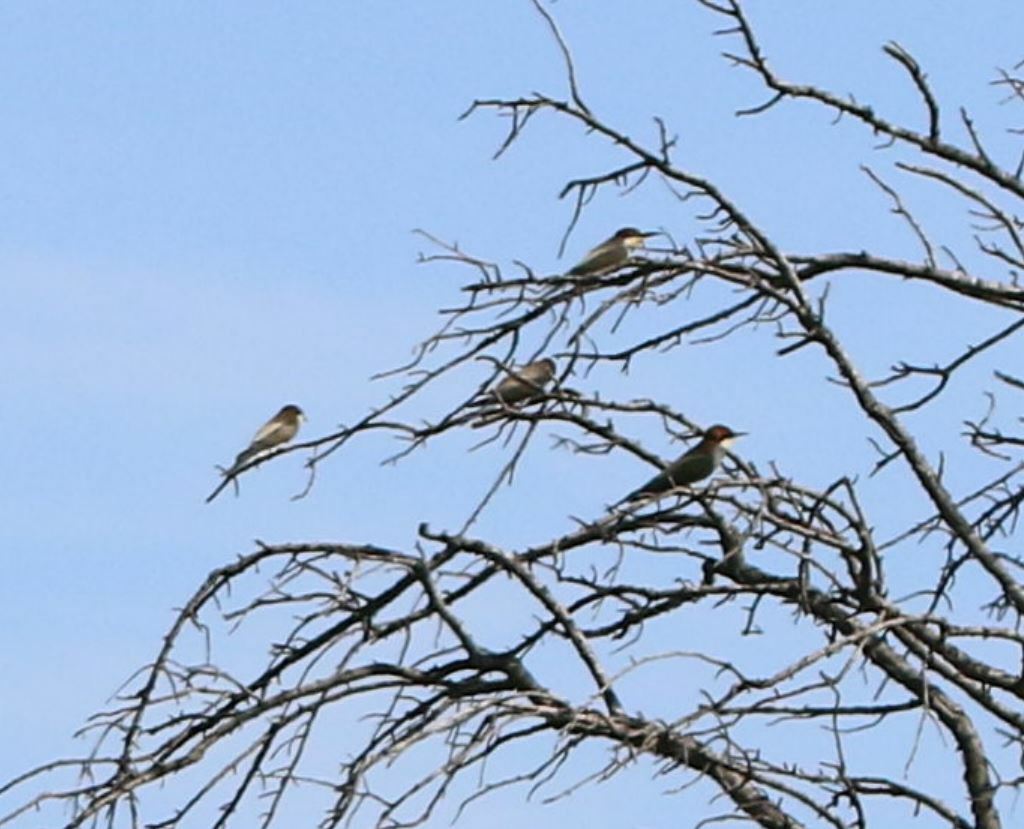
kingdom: Animalia
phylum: Chordata
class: Aves
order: Coraciiformes
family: Meropidae
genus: Merops
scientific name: Merops apiaster
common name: European bee-eater
